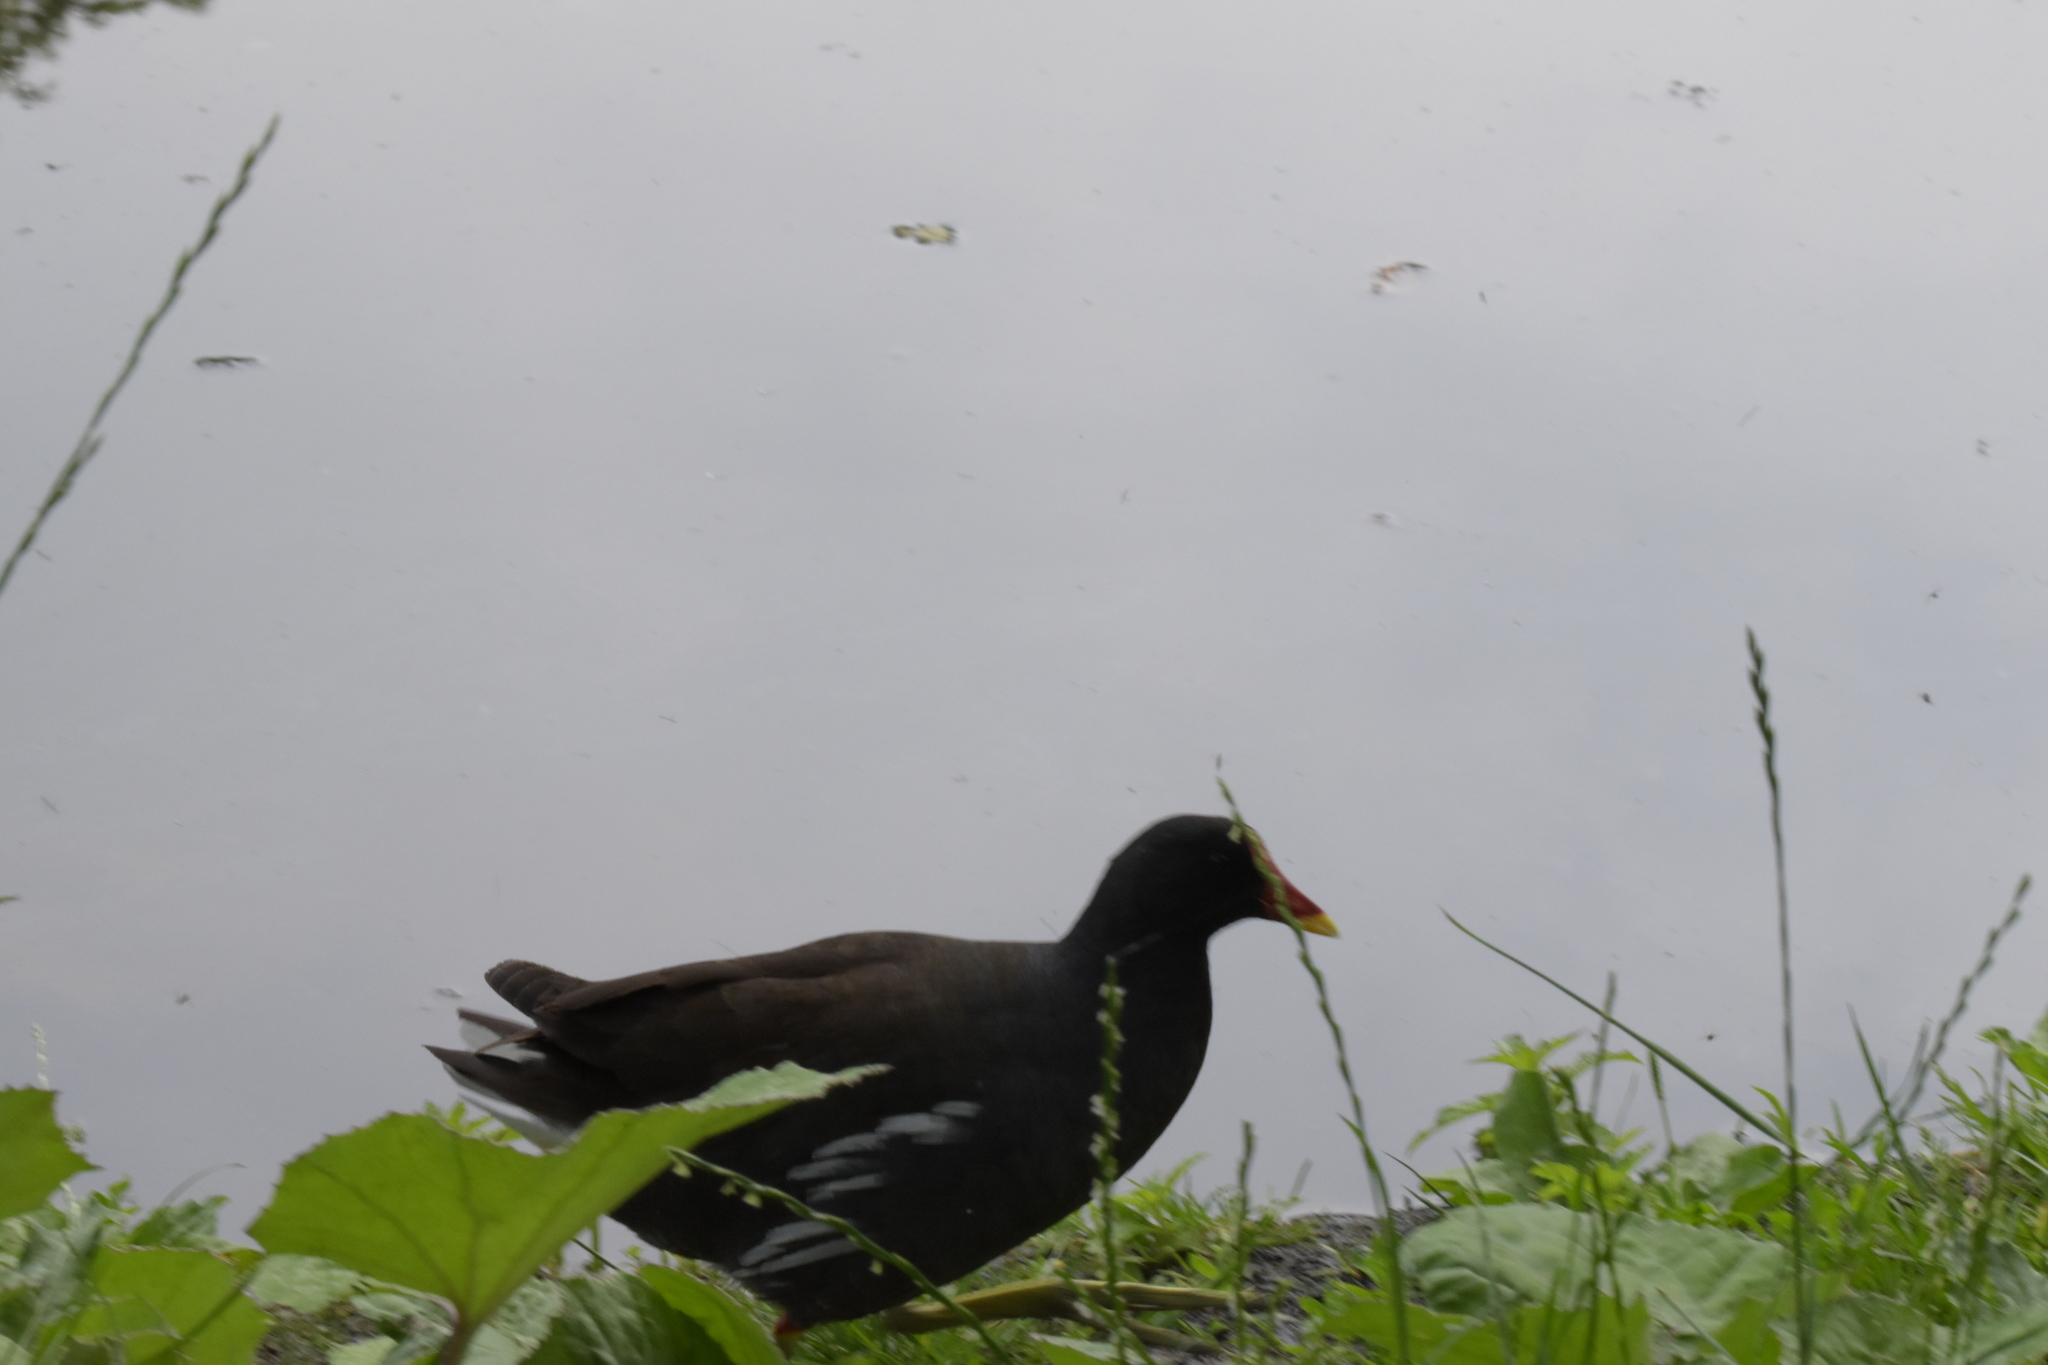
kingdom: Animalia
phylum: Chordata
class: Aves
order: Gruiformes
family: Rallidae
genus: Gallinula
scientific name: Gallinula chloropus
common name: Common moorhen
